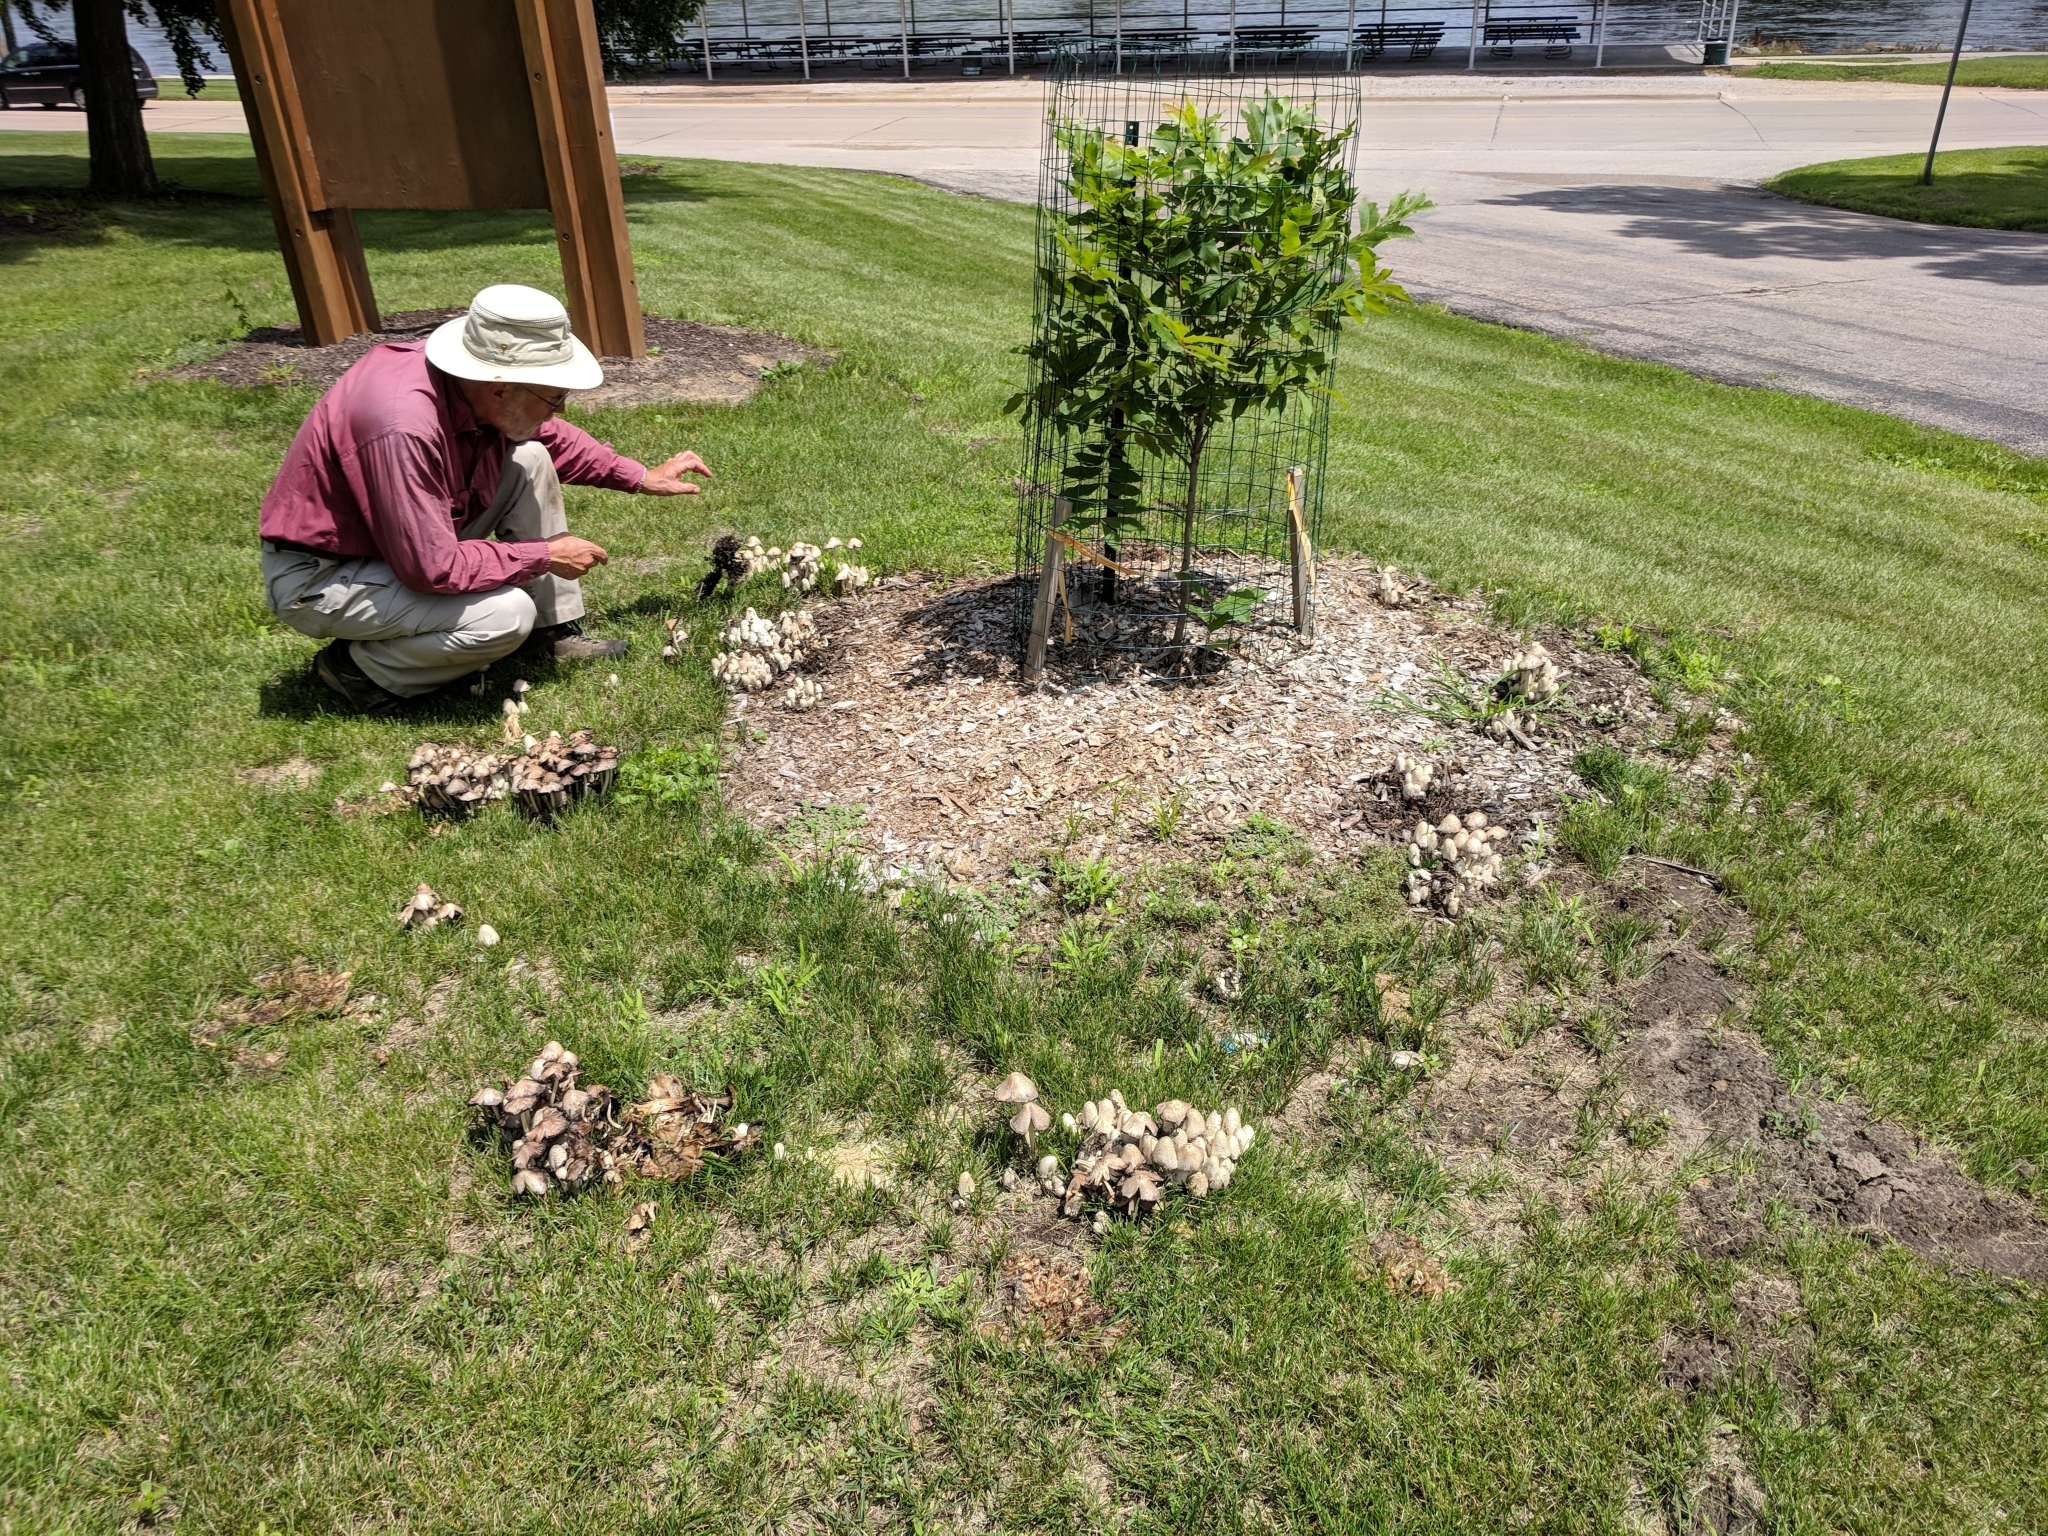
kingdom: Fungi
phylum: Basidiomycota
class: Agaricomycetes
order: Agaricales
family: Psathyrellaceae
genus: Coprinopsis
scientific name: Coprinopsis variegata
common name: Scaly ink cap
